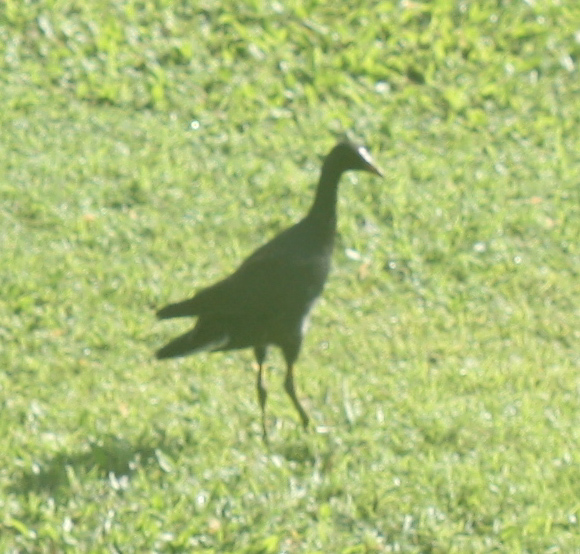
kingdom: Animalia
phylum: Chordata
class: Aves
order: Gruiformes
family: Rallidae
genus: Gallinula
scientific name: Gallinula chloropus
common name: Common moorhen
